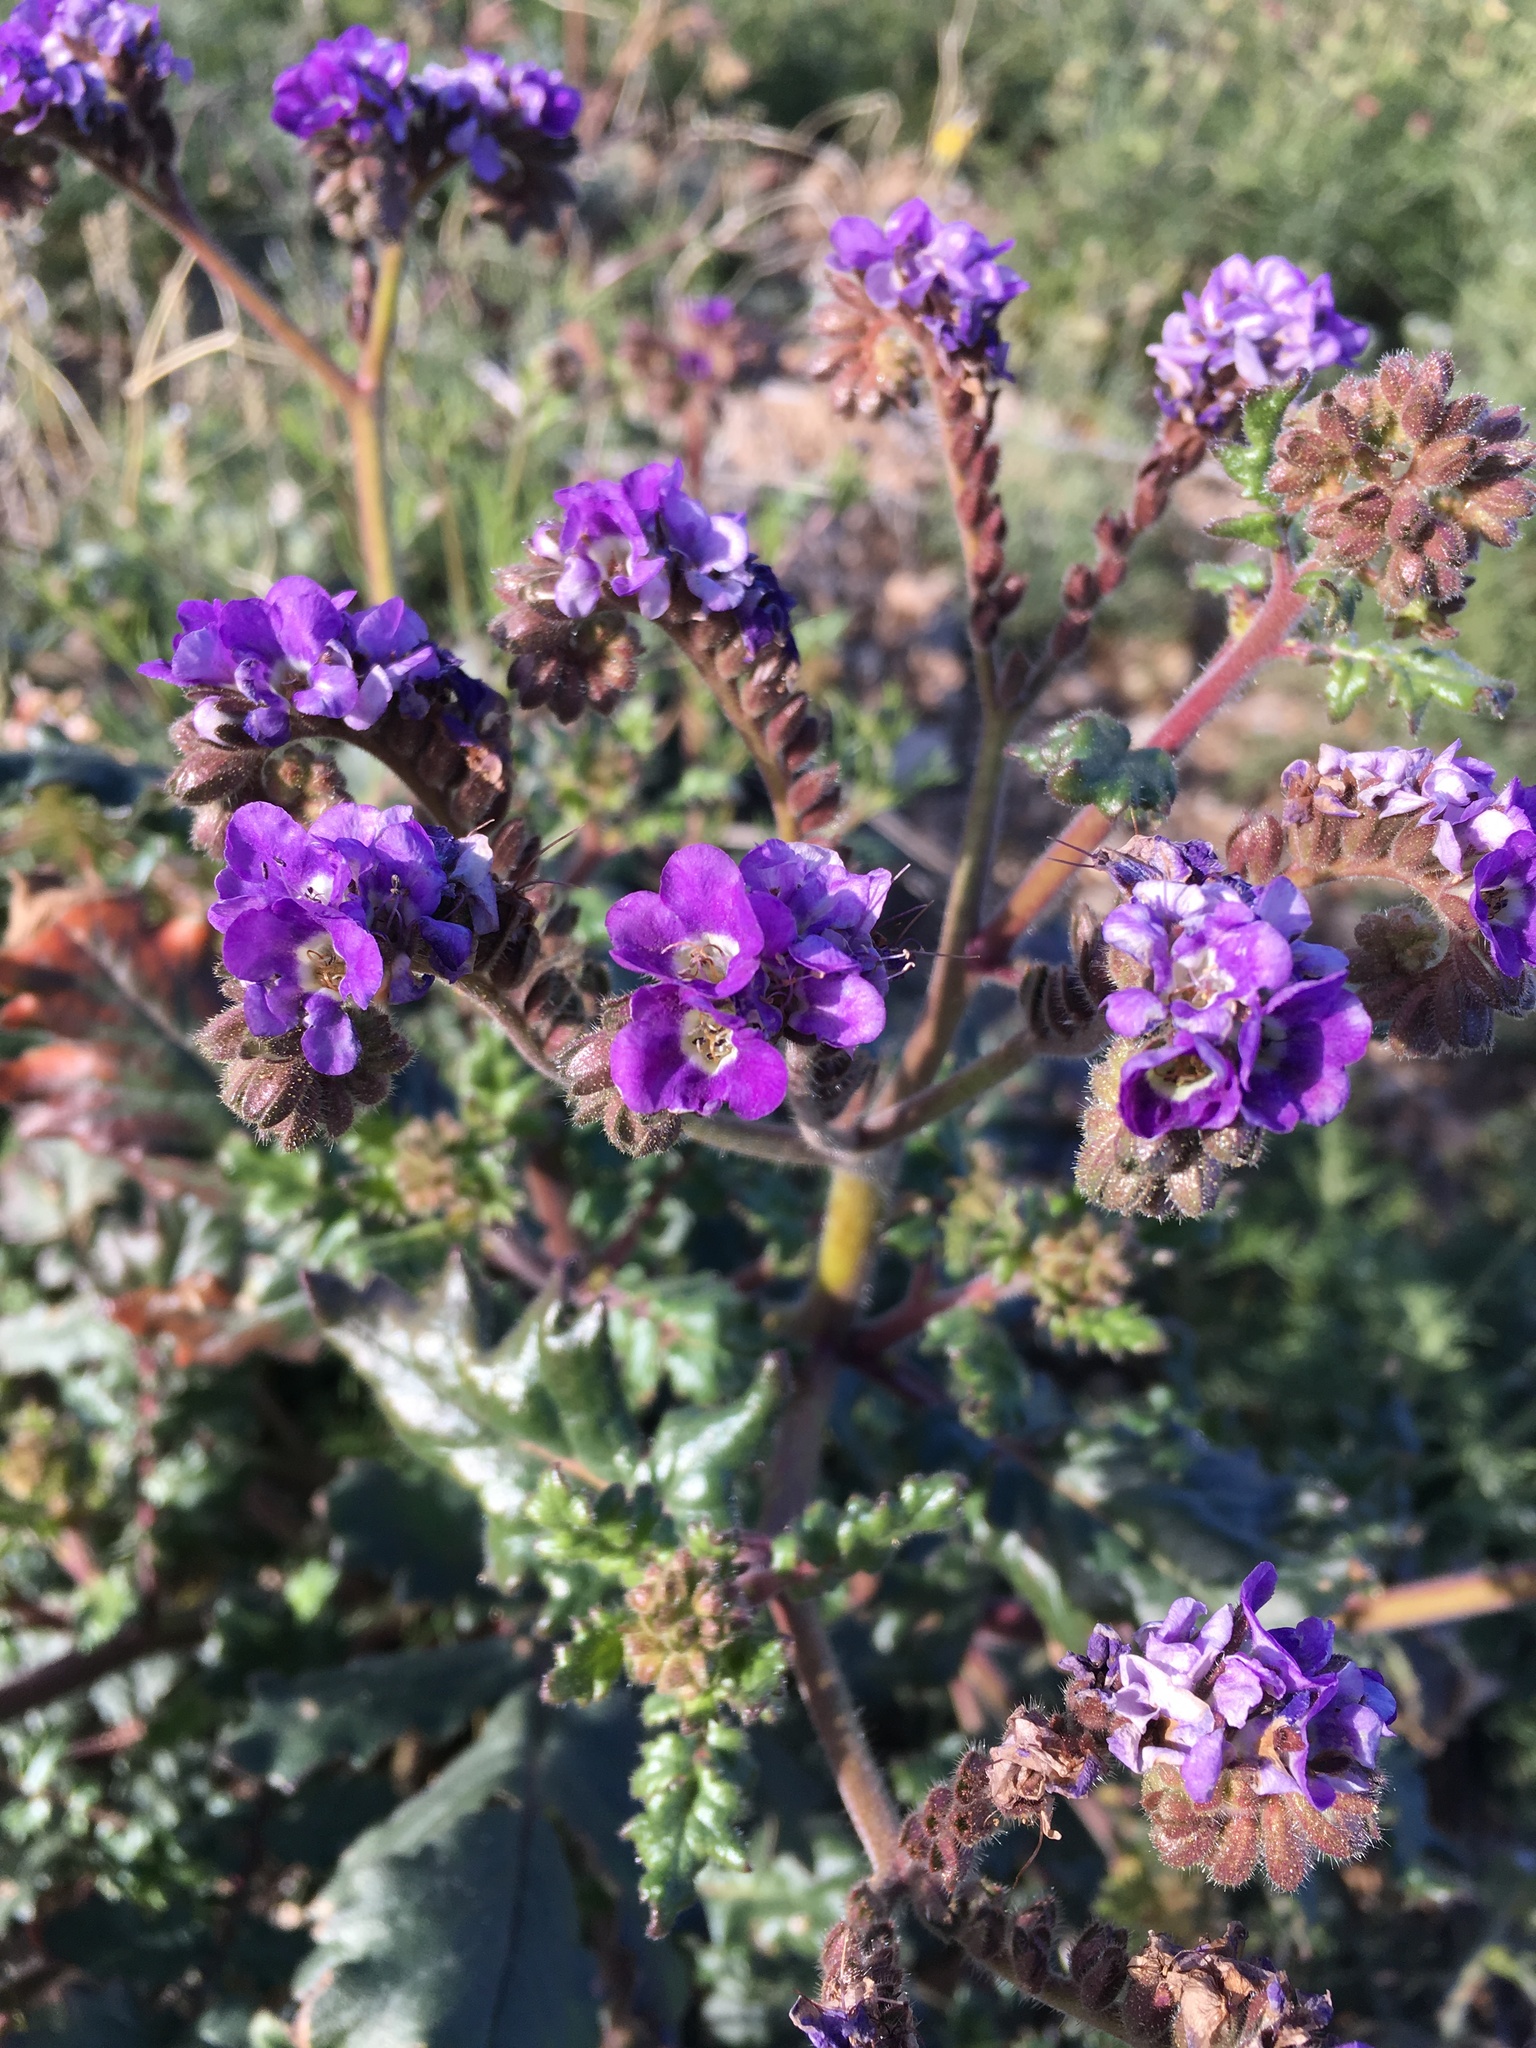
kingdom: Plantae
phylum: Tracheophyta
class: Magnoliopsida
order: Boraginales
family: Hydrophyllaceae
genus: Phacelia
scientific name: Phacelia crenulata
